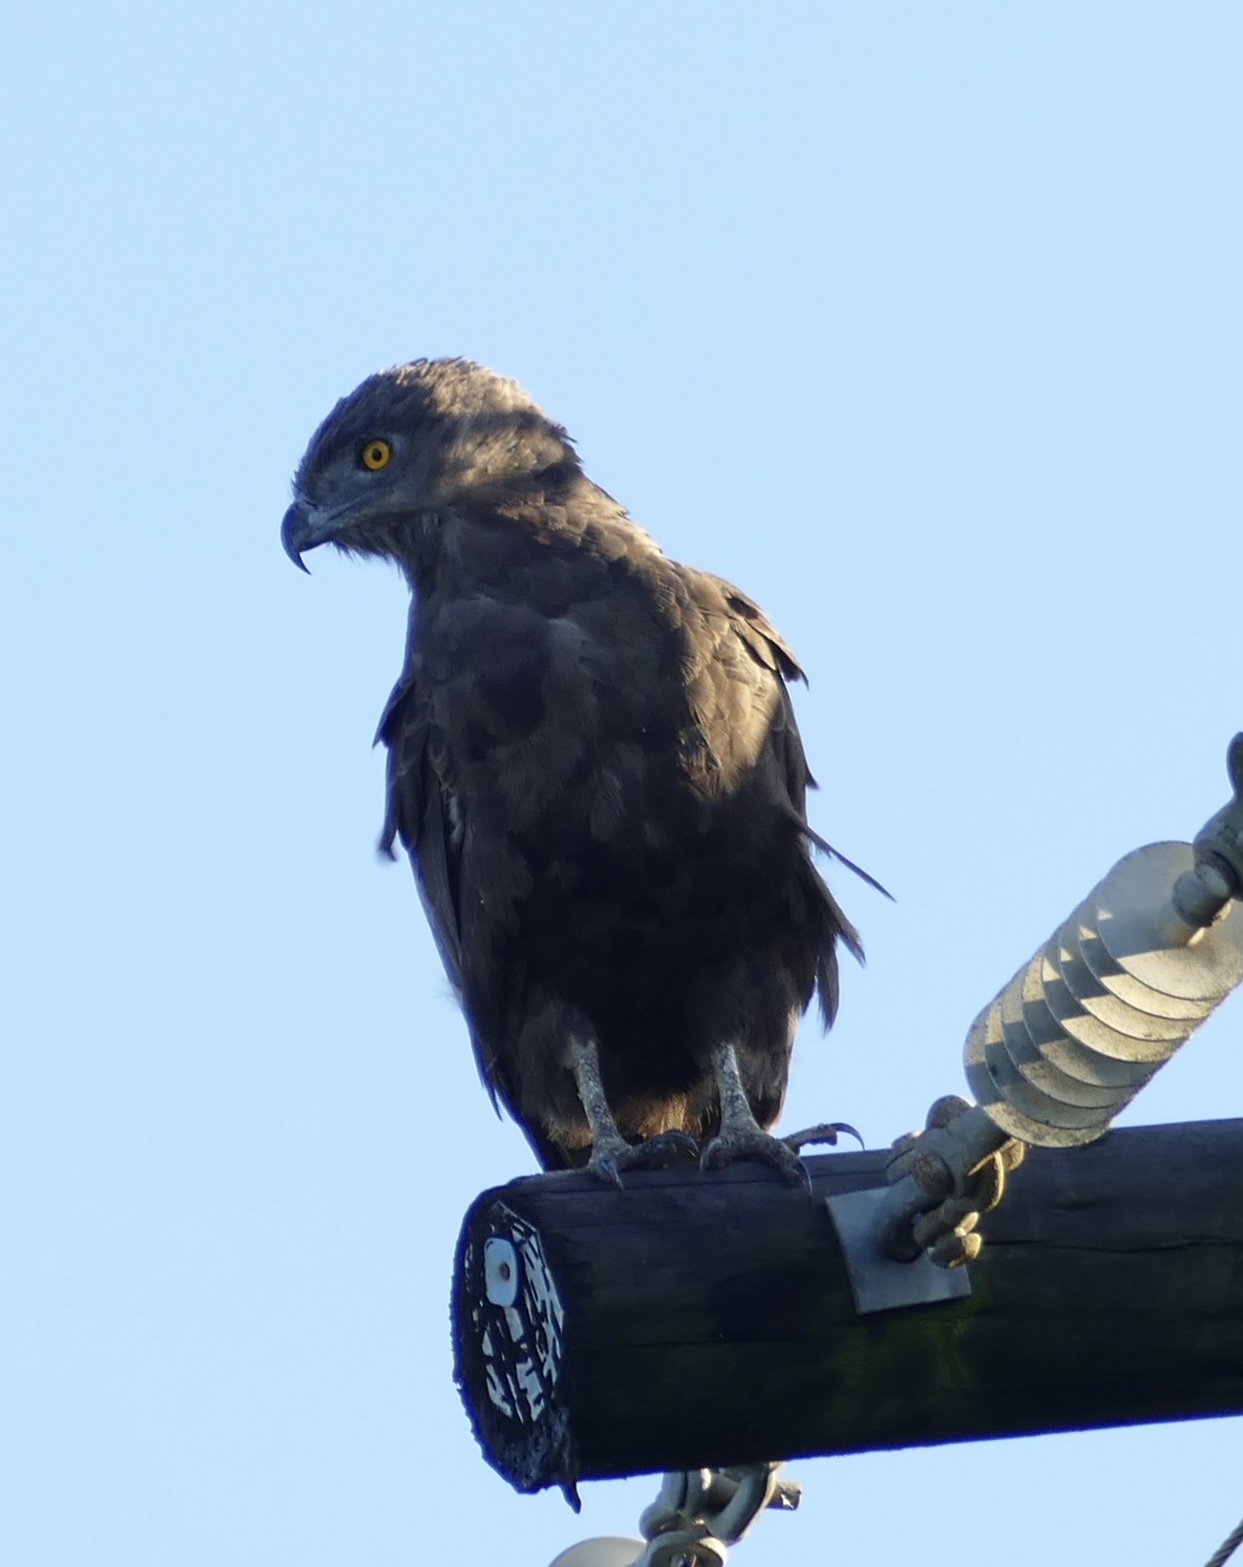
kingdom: Animalia
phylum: Chordata
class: Aves
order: Accipitriformes
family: Accipitridae
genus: Circaetus
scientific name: Circaetus cinereus
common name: Brown snake eagle
